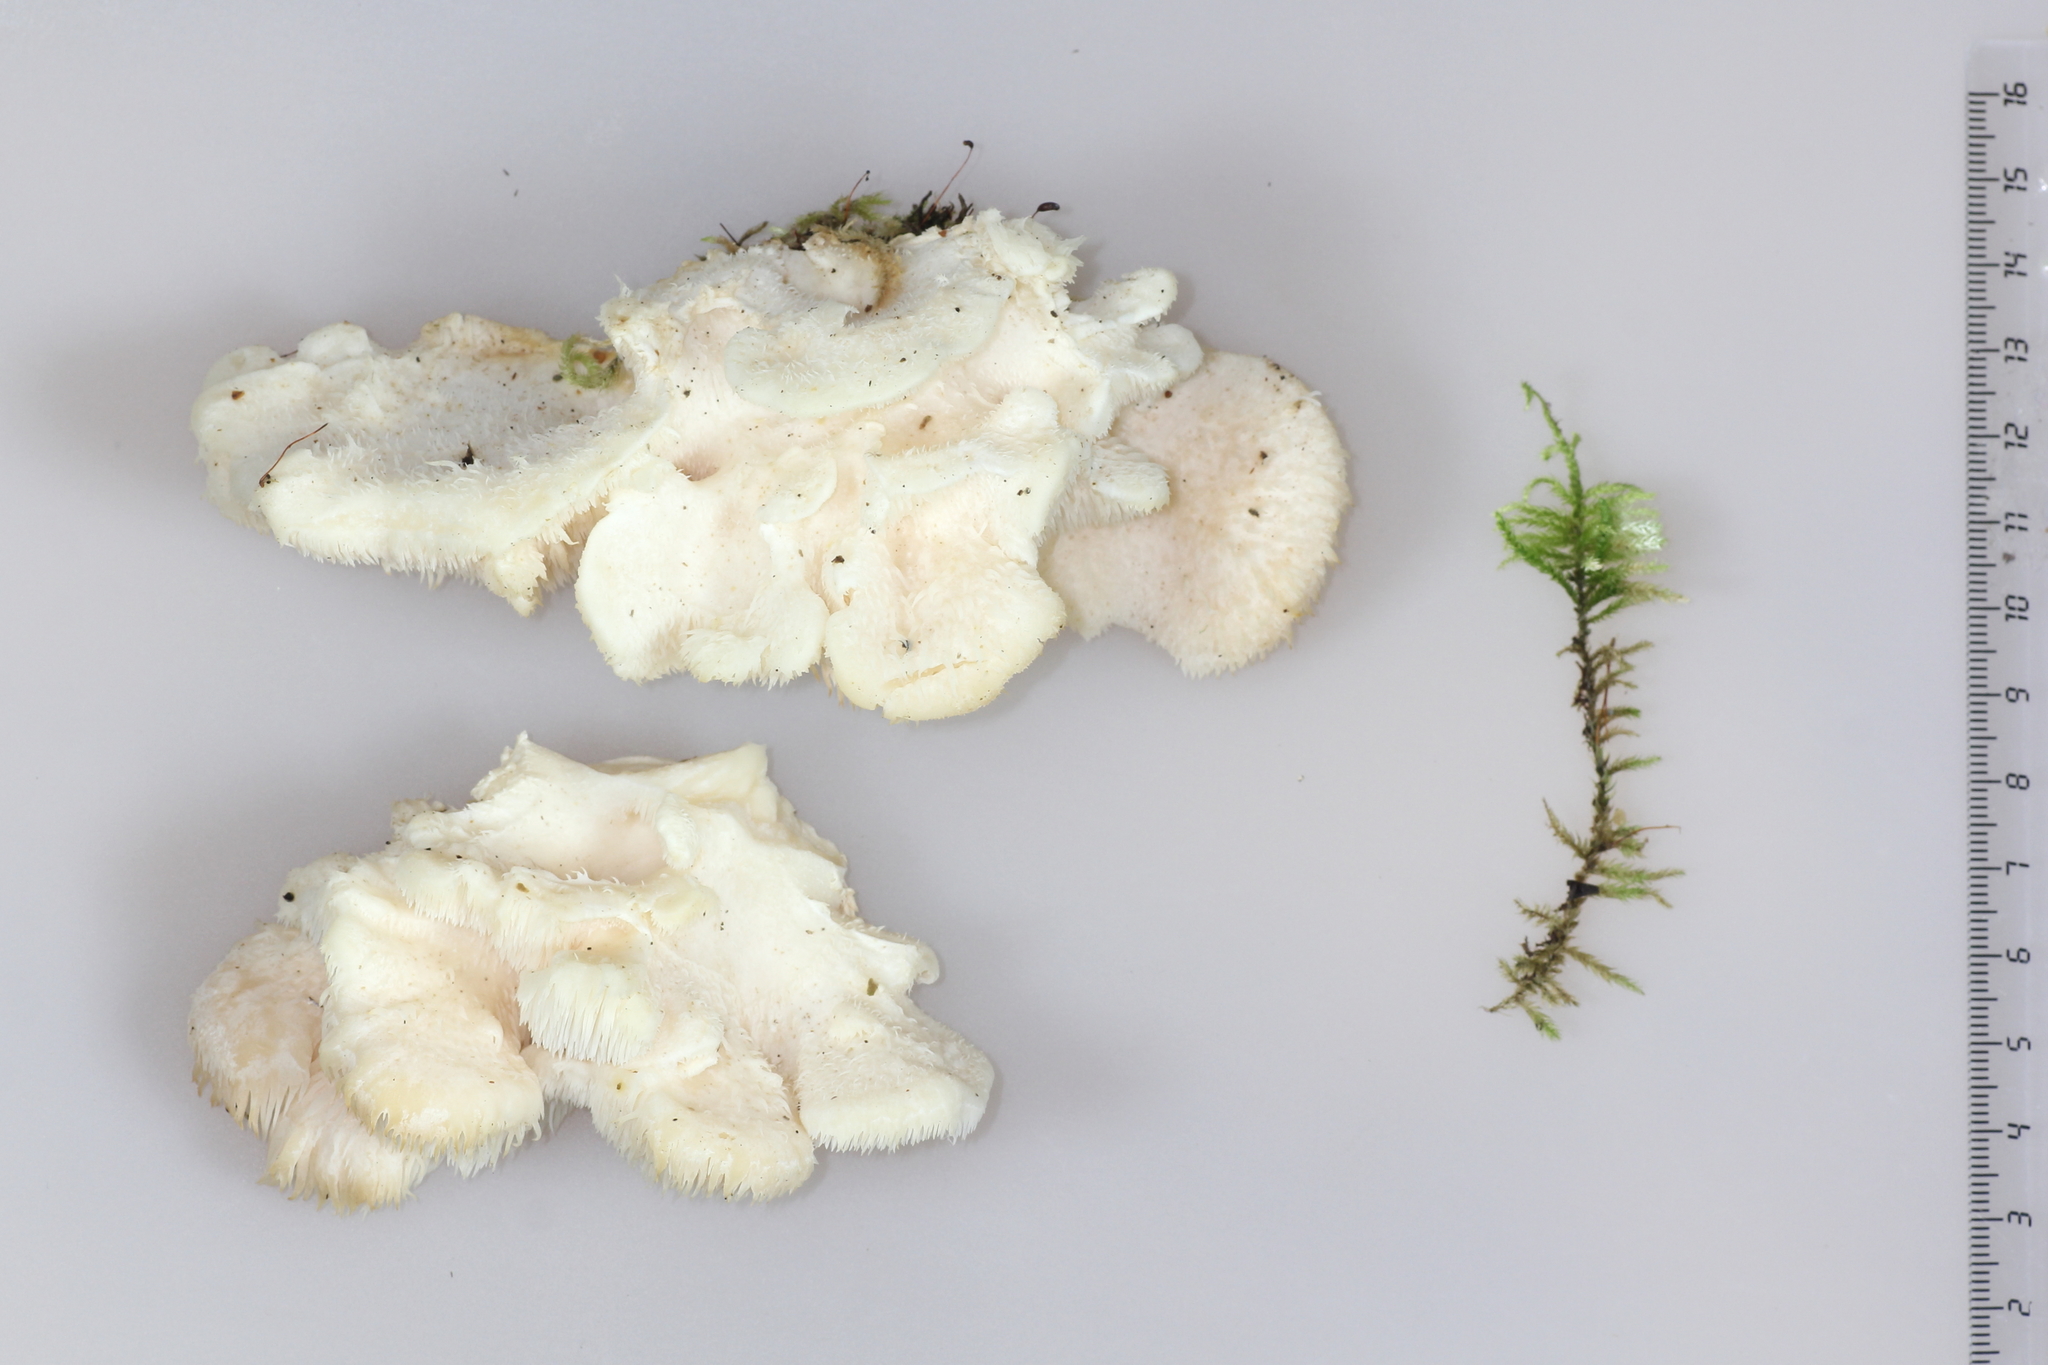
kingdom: Fungi
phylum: Basidiomycota
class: Agaricomycetes
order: Russulales
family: Hericiaceae
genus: Hericium
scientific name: Hericium cirrhatum
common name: Tiered tooth
